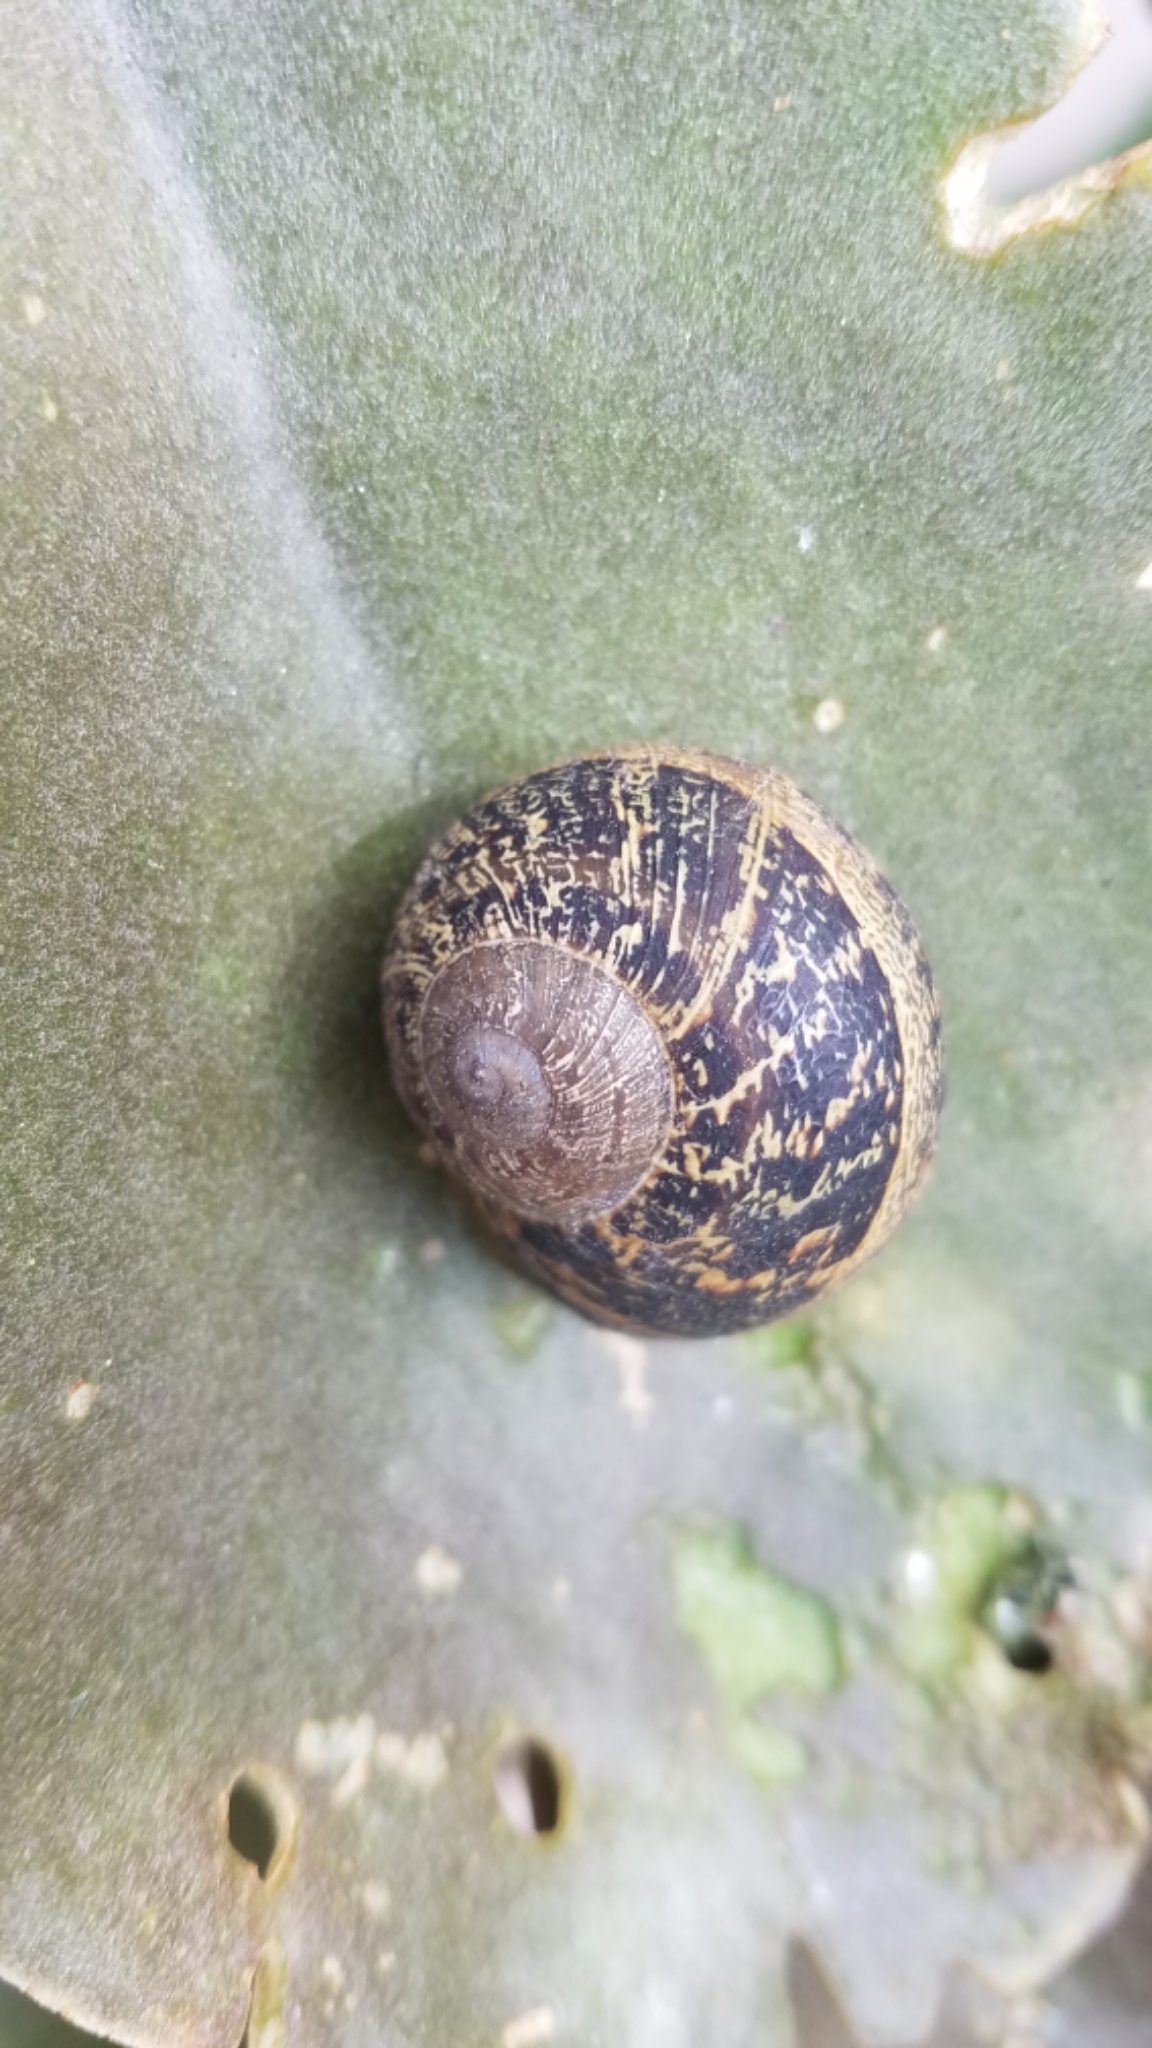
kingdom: Animalia
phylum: Mollusca
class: Gastropoda
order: Stylommatophora
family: Helicidae
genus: Cornu
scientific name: Cornu aspersum
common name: Brown garden snail
